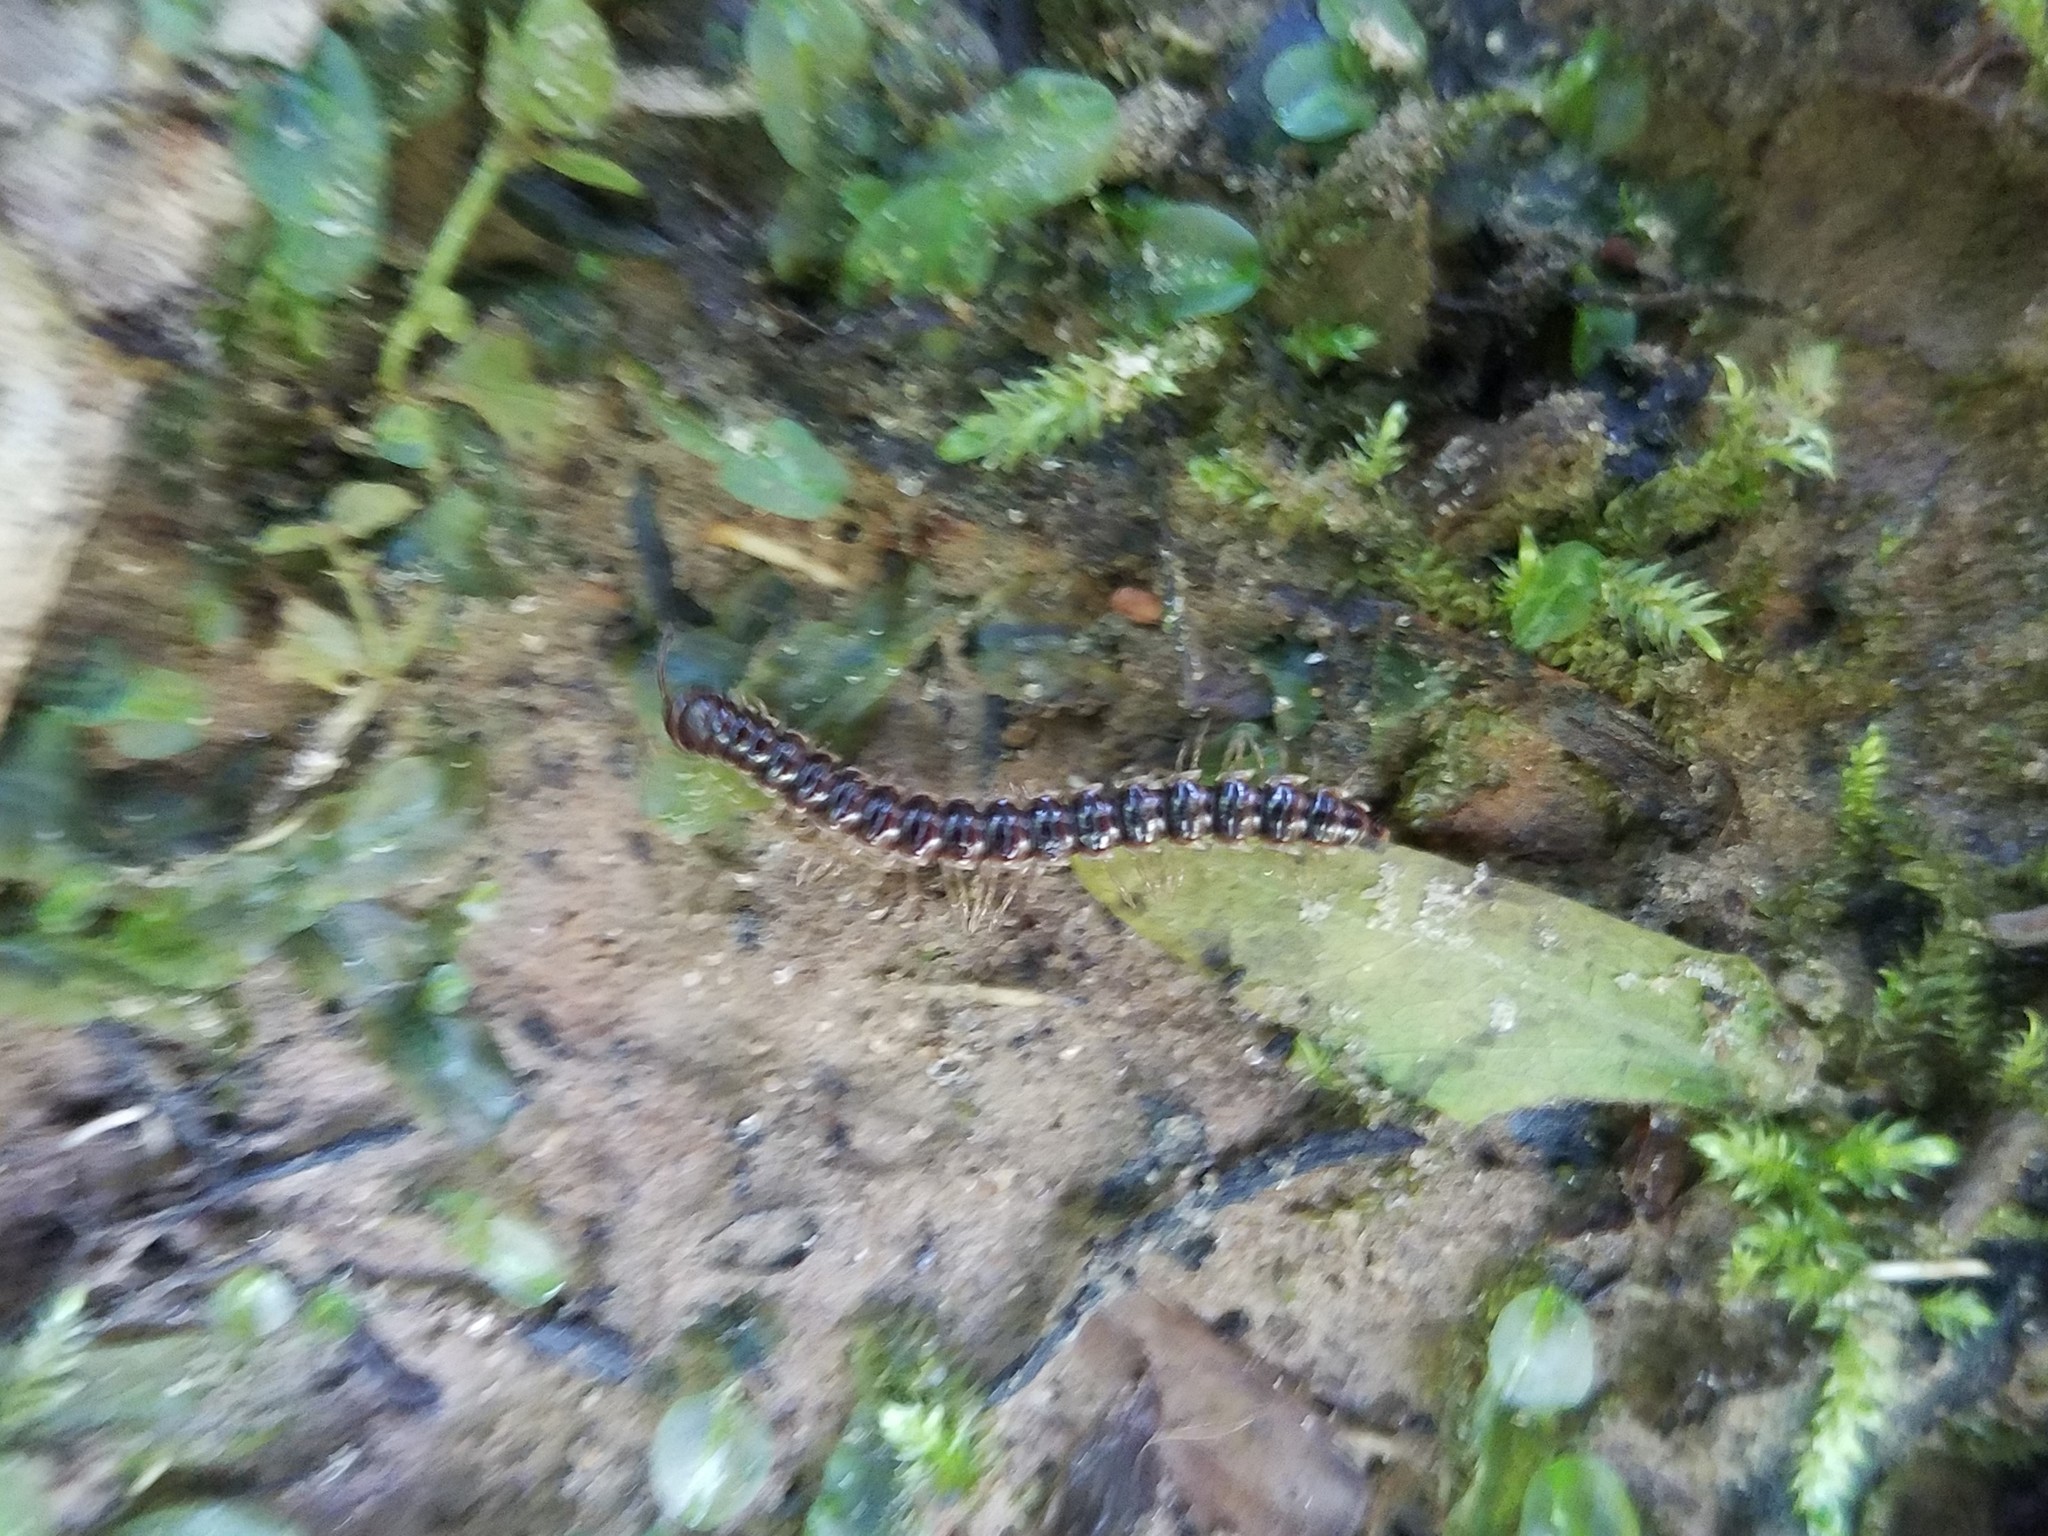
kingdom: Animalia
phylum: Arthropoda
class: Diplopoda
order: Polydesmida
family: Paradoxosomatidae
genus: Oxidus
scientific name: Oxidus gracilis
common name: Greenhouse millipede
